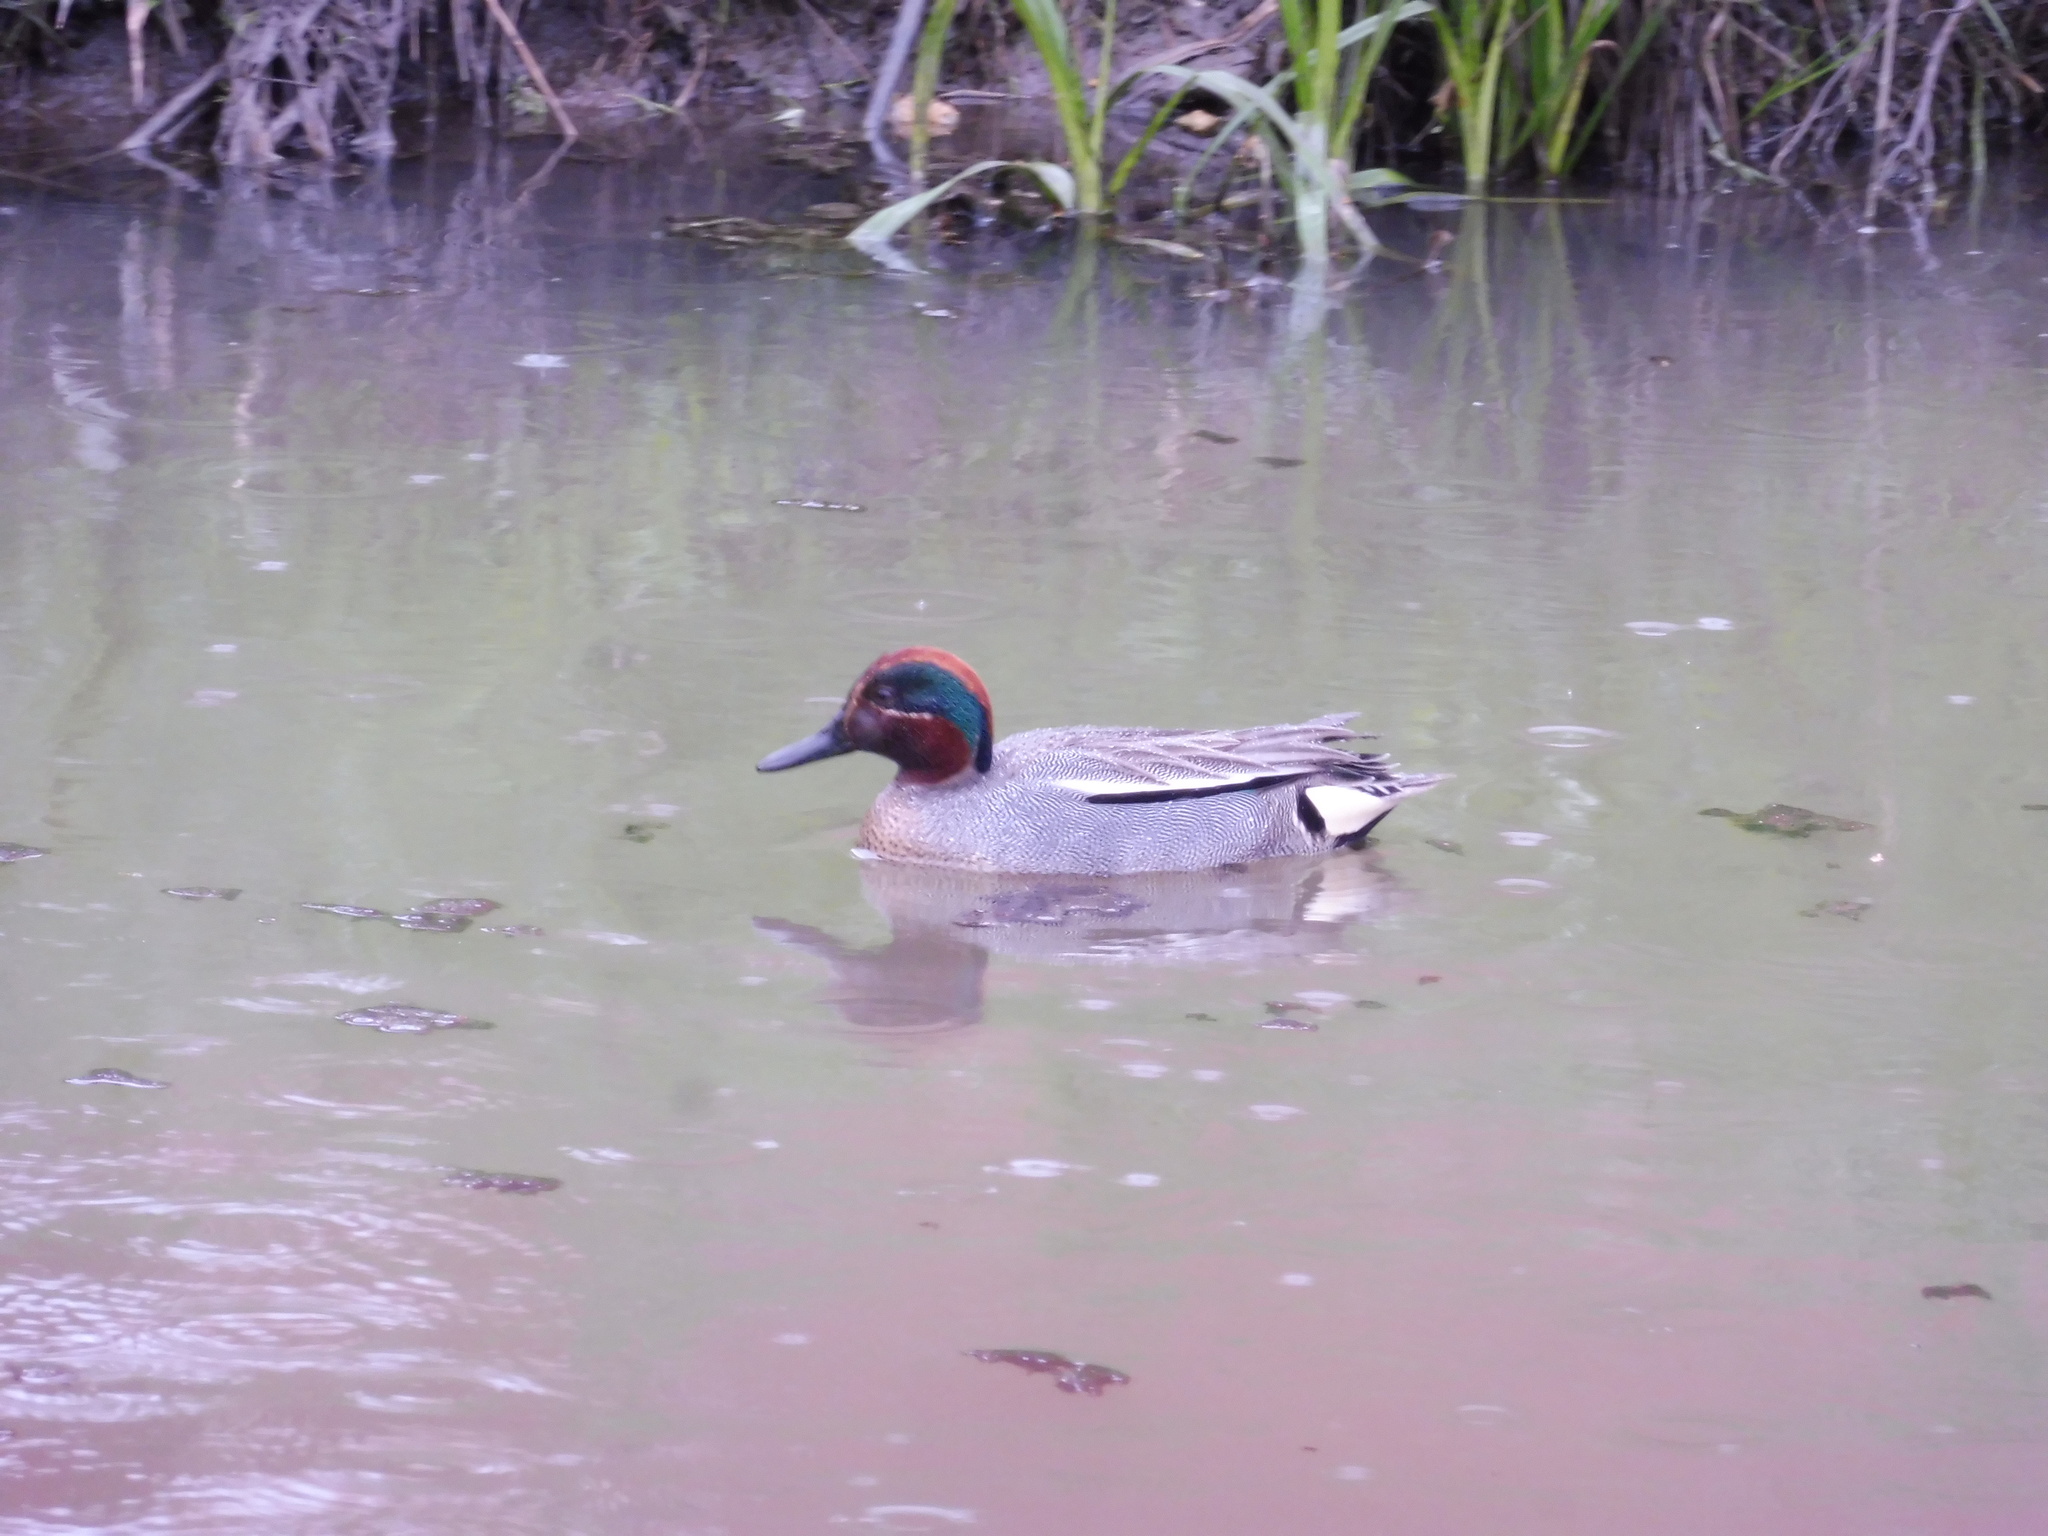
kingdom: Animalia
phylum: Chordata
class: Aves
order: Anseriformes
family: Anatidae
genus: Anas
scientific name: Anas crecca
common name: Eurasian teal
